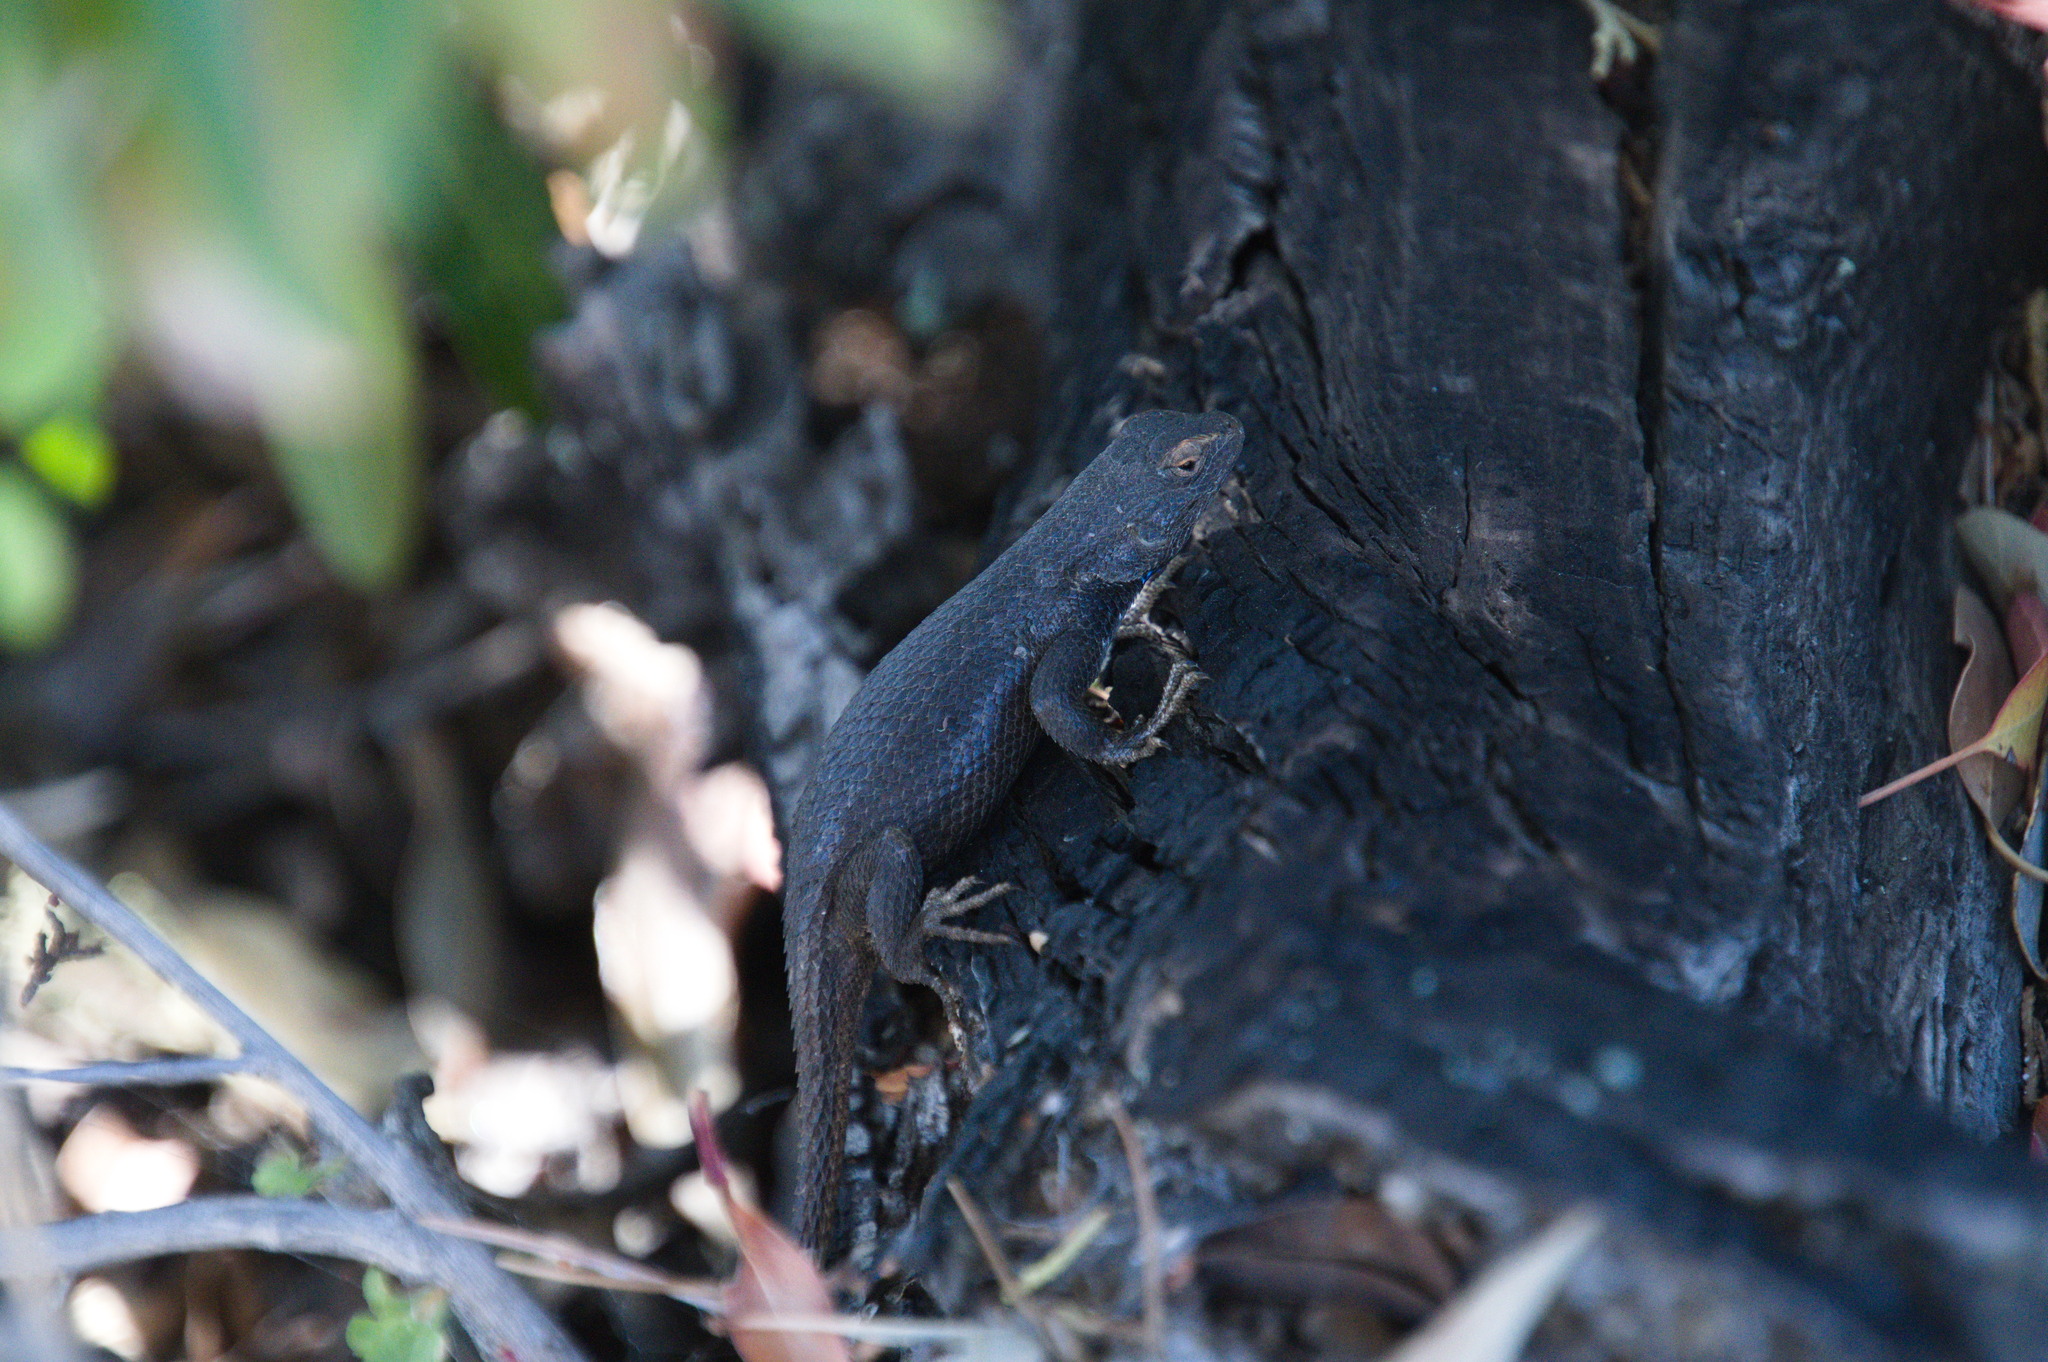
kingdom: Animalia
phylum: Chordata
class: Squamata
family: Phrynosomatidae
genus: Sceloporus
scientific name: Sceloporus cowlesi
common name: White sands prairie lizard
